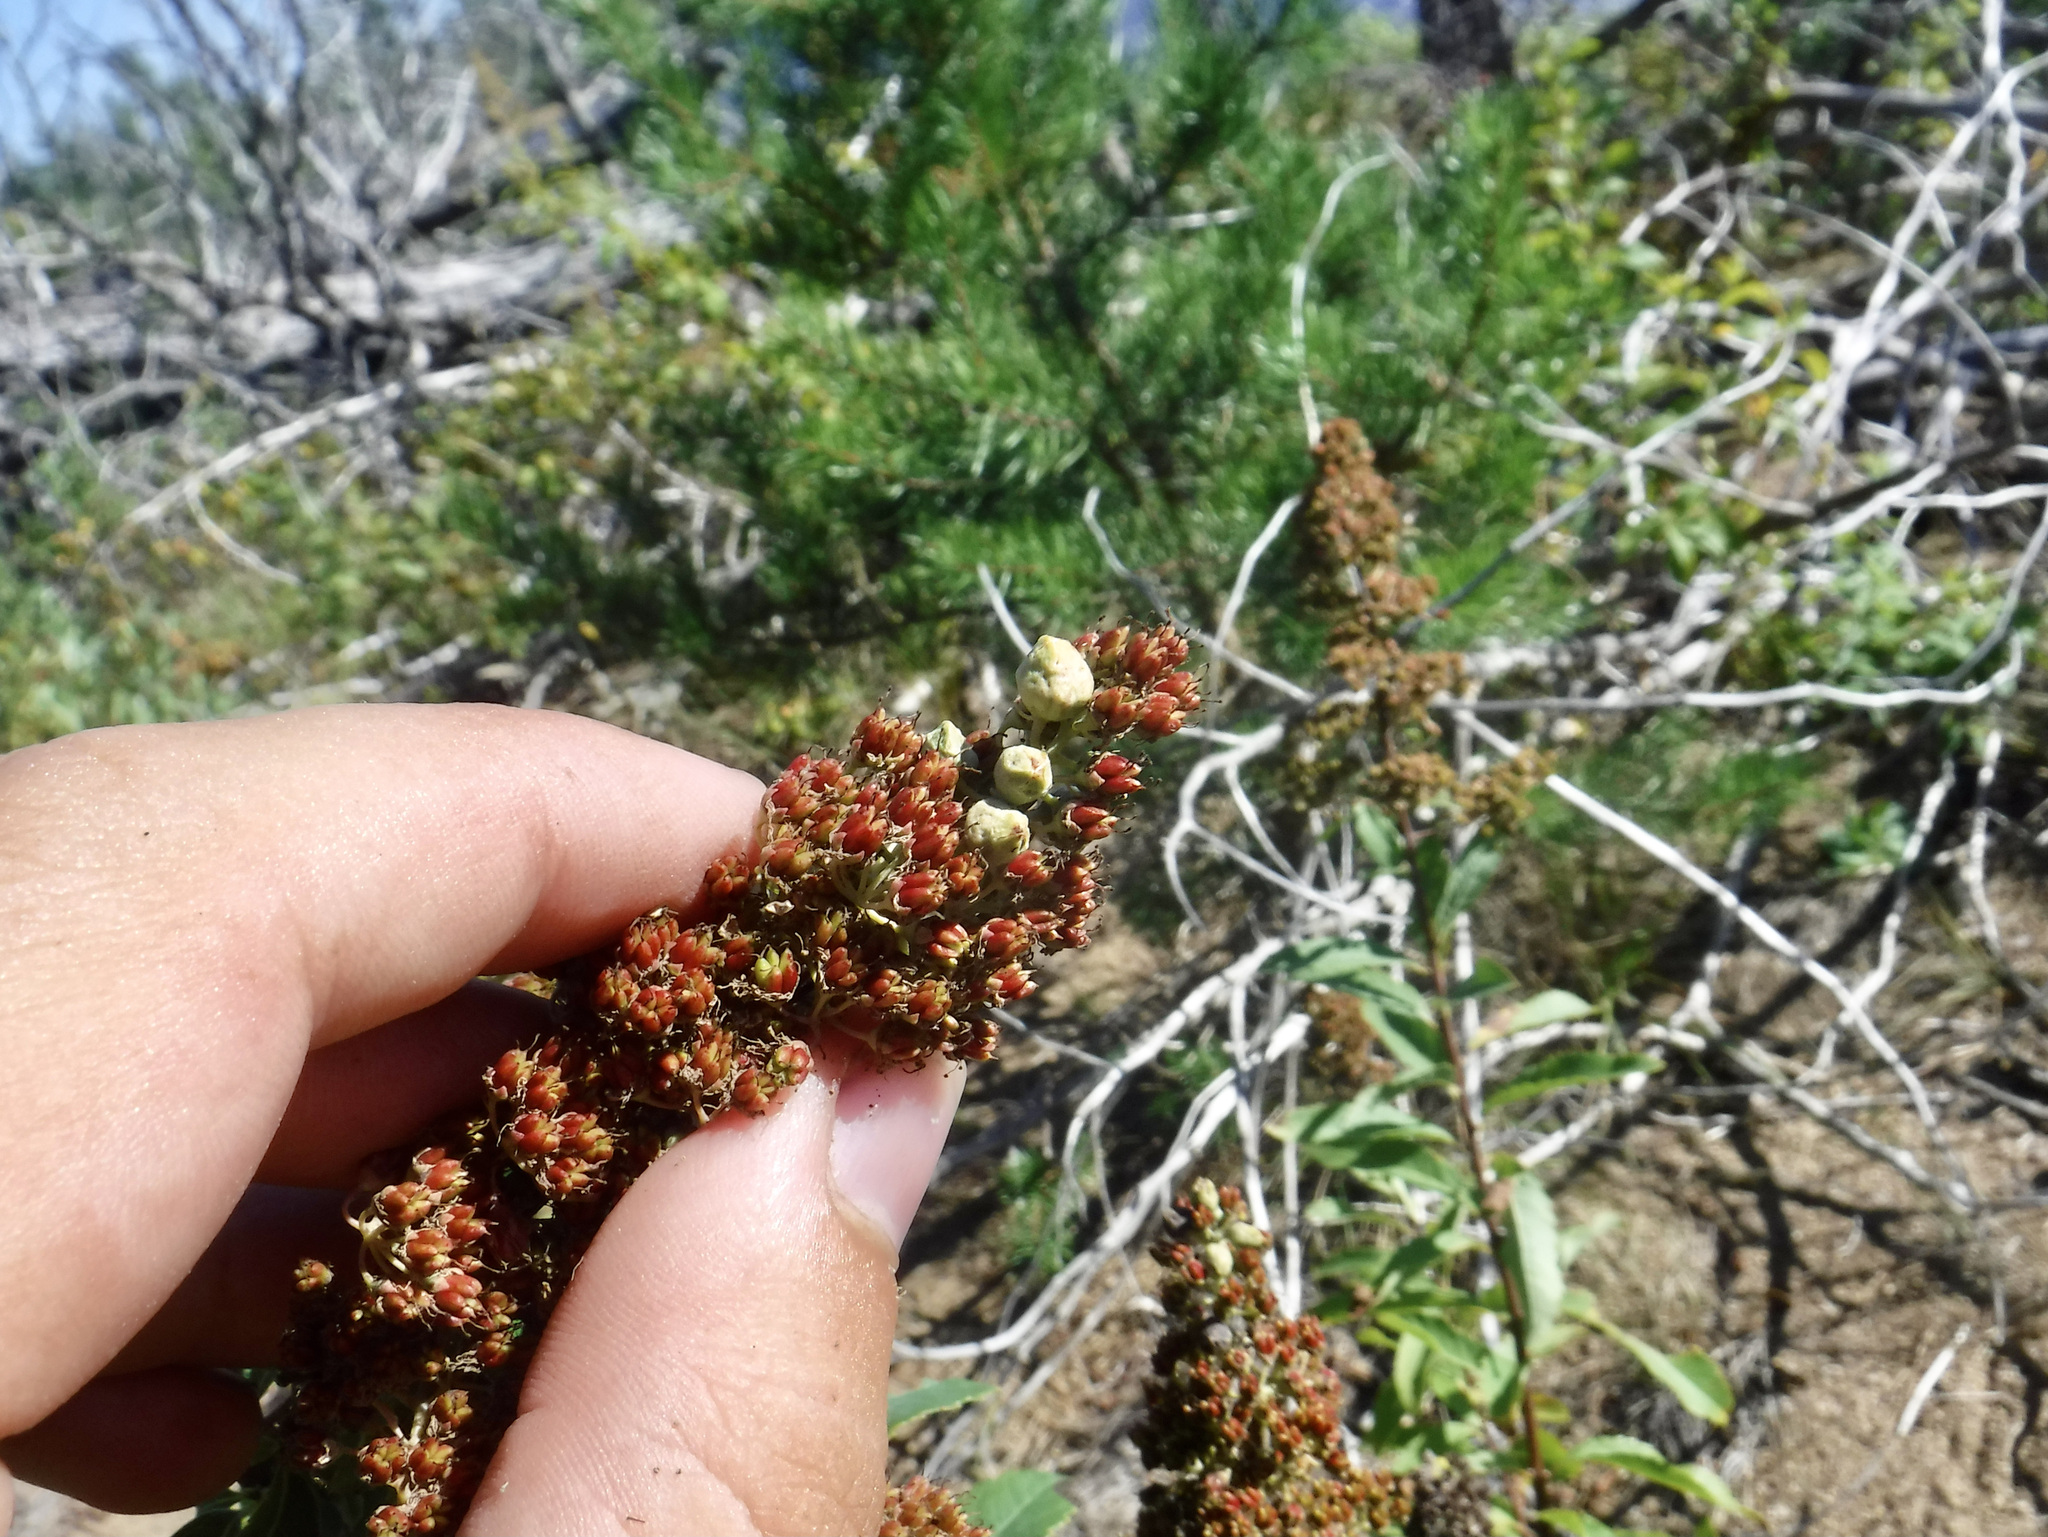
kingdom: Animalia
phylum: Arthropoda
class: Insecta
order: Diptera
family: Cecidomyiidae
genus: Prodiplosis
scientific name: Prodiplosis floricola
